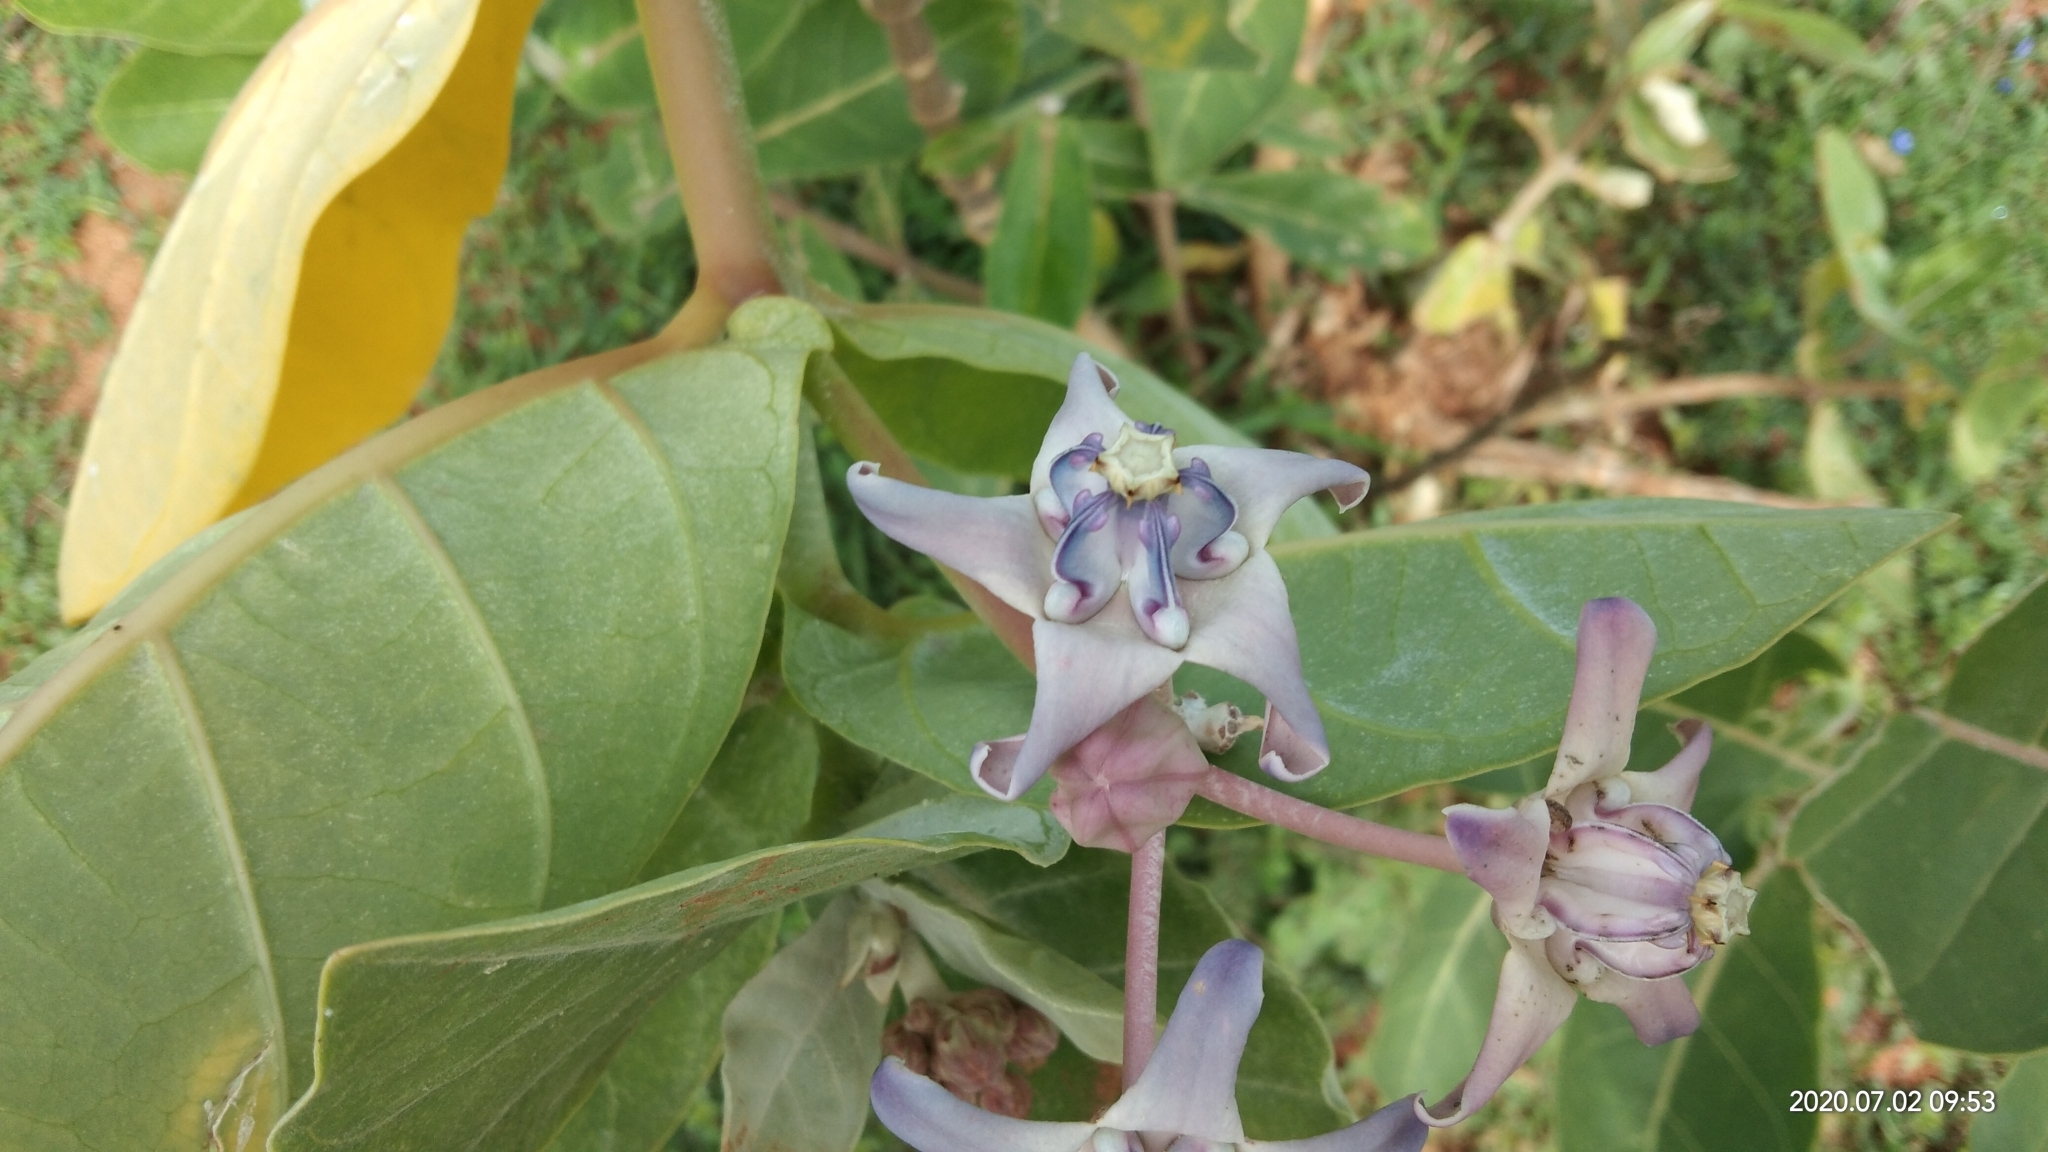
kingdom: Plantae
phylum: Tracheophyta
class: Magnoliopsida
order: Gentianales
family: Apocynaceae
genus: Calotropis
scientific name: Calotropis gigantea
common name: Crown flower
